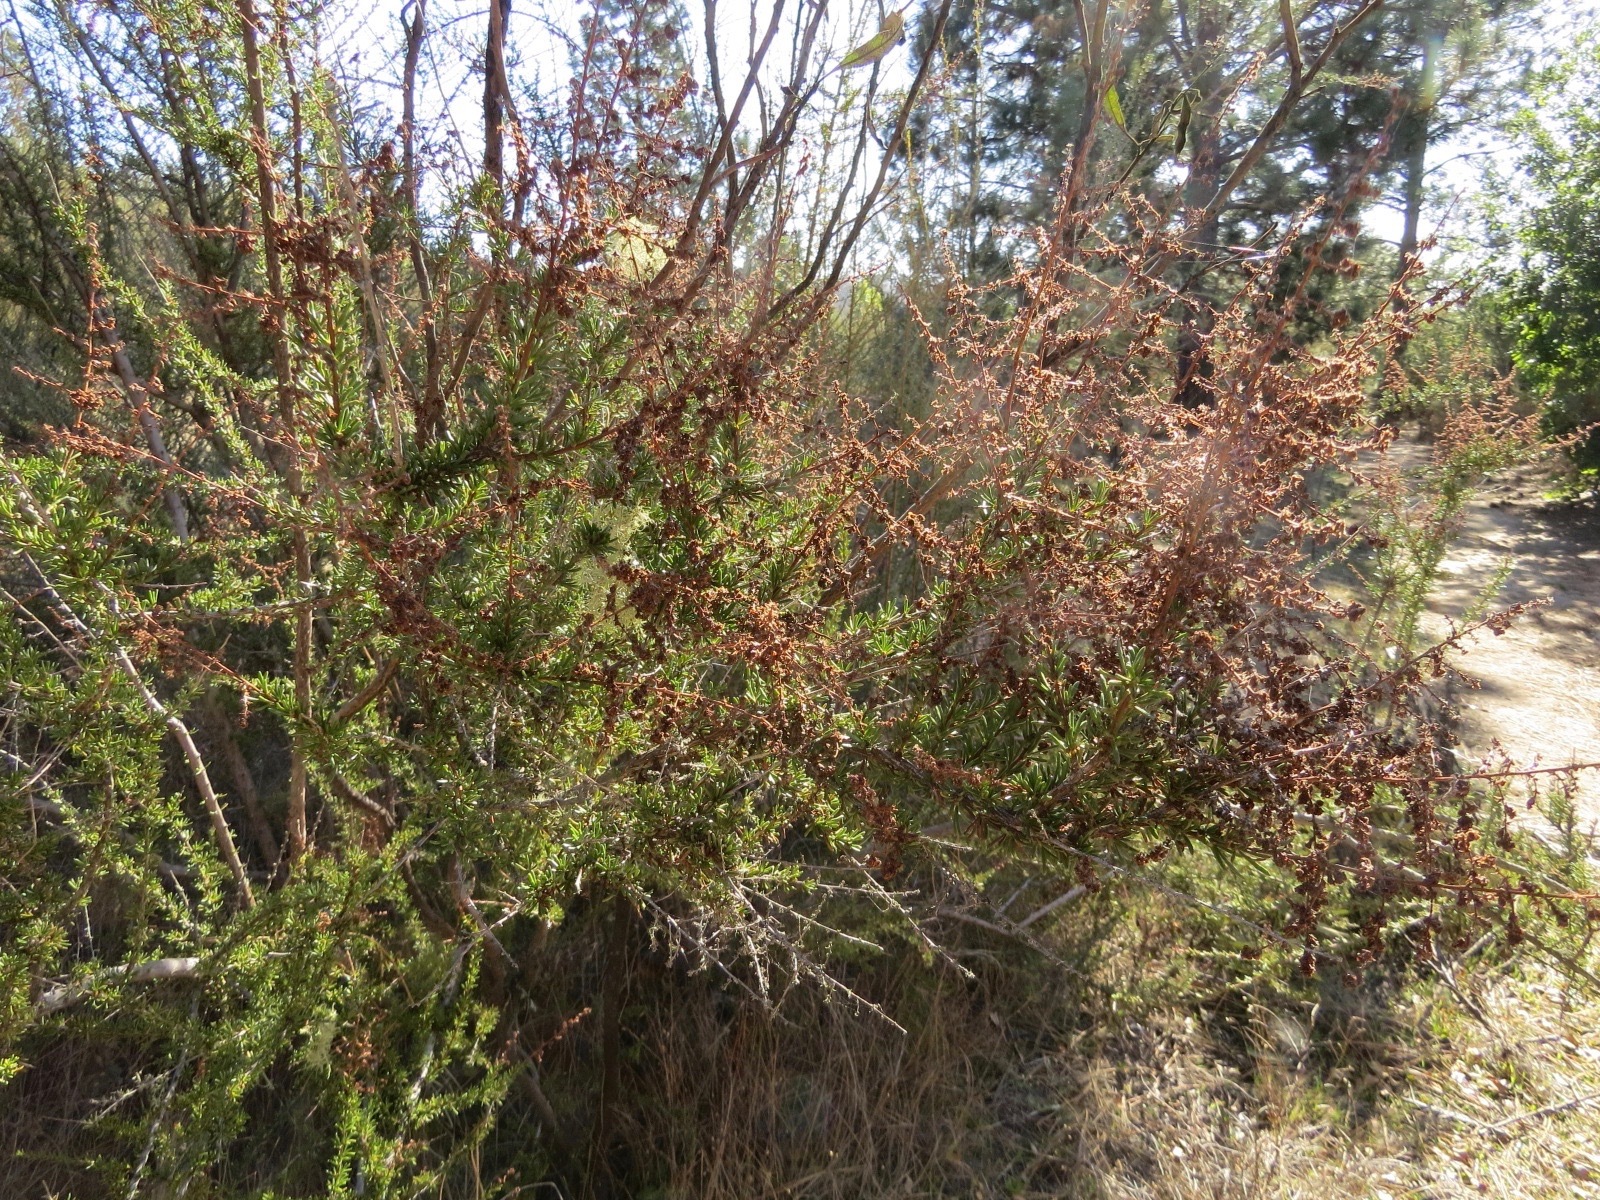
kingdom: Plantae
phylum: Tracheophyta
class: Magnoliopsida
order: Rosales
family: Rosaceae
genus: Adenostoma
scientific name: Adenostoma fasciculatum
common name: Chamise
